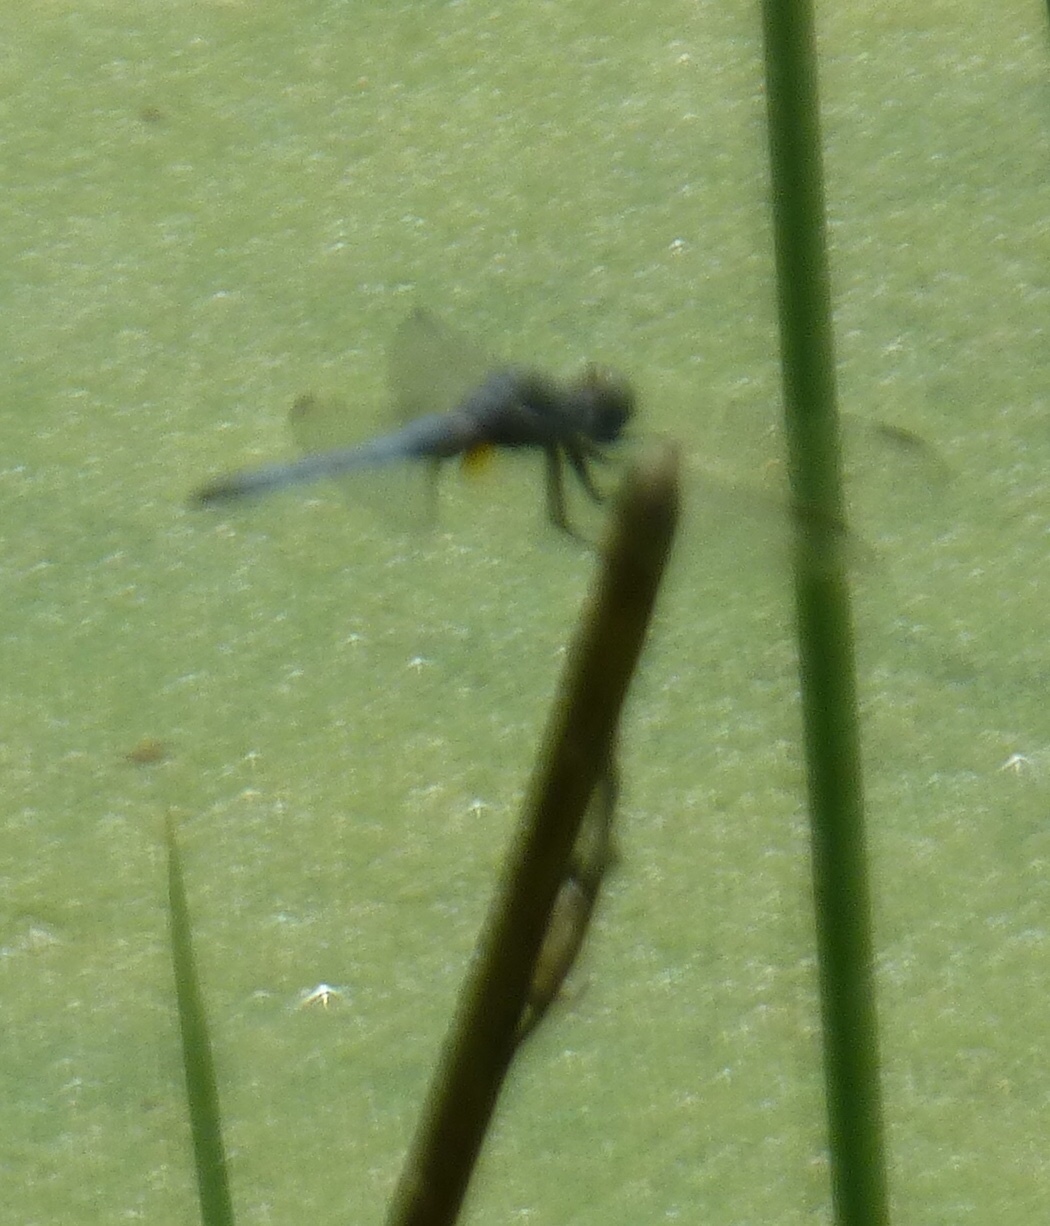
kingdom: Animalia
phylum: Arthropoda
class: Insecta
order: Odonata
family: Libellulidae
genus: Pachydiplax
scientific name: Pachydiplax longipennis
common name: Blue dasher
